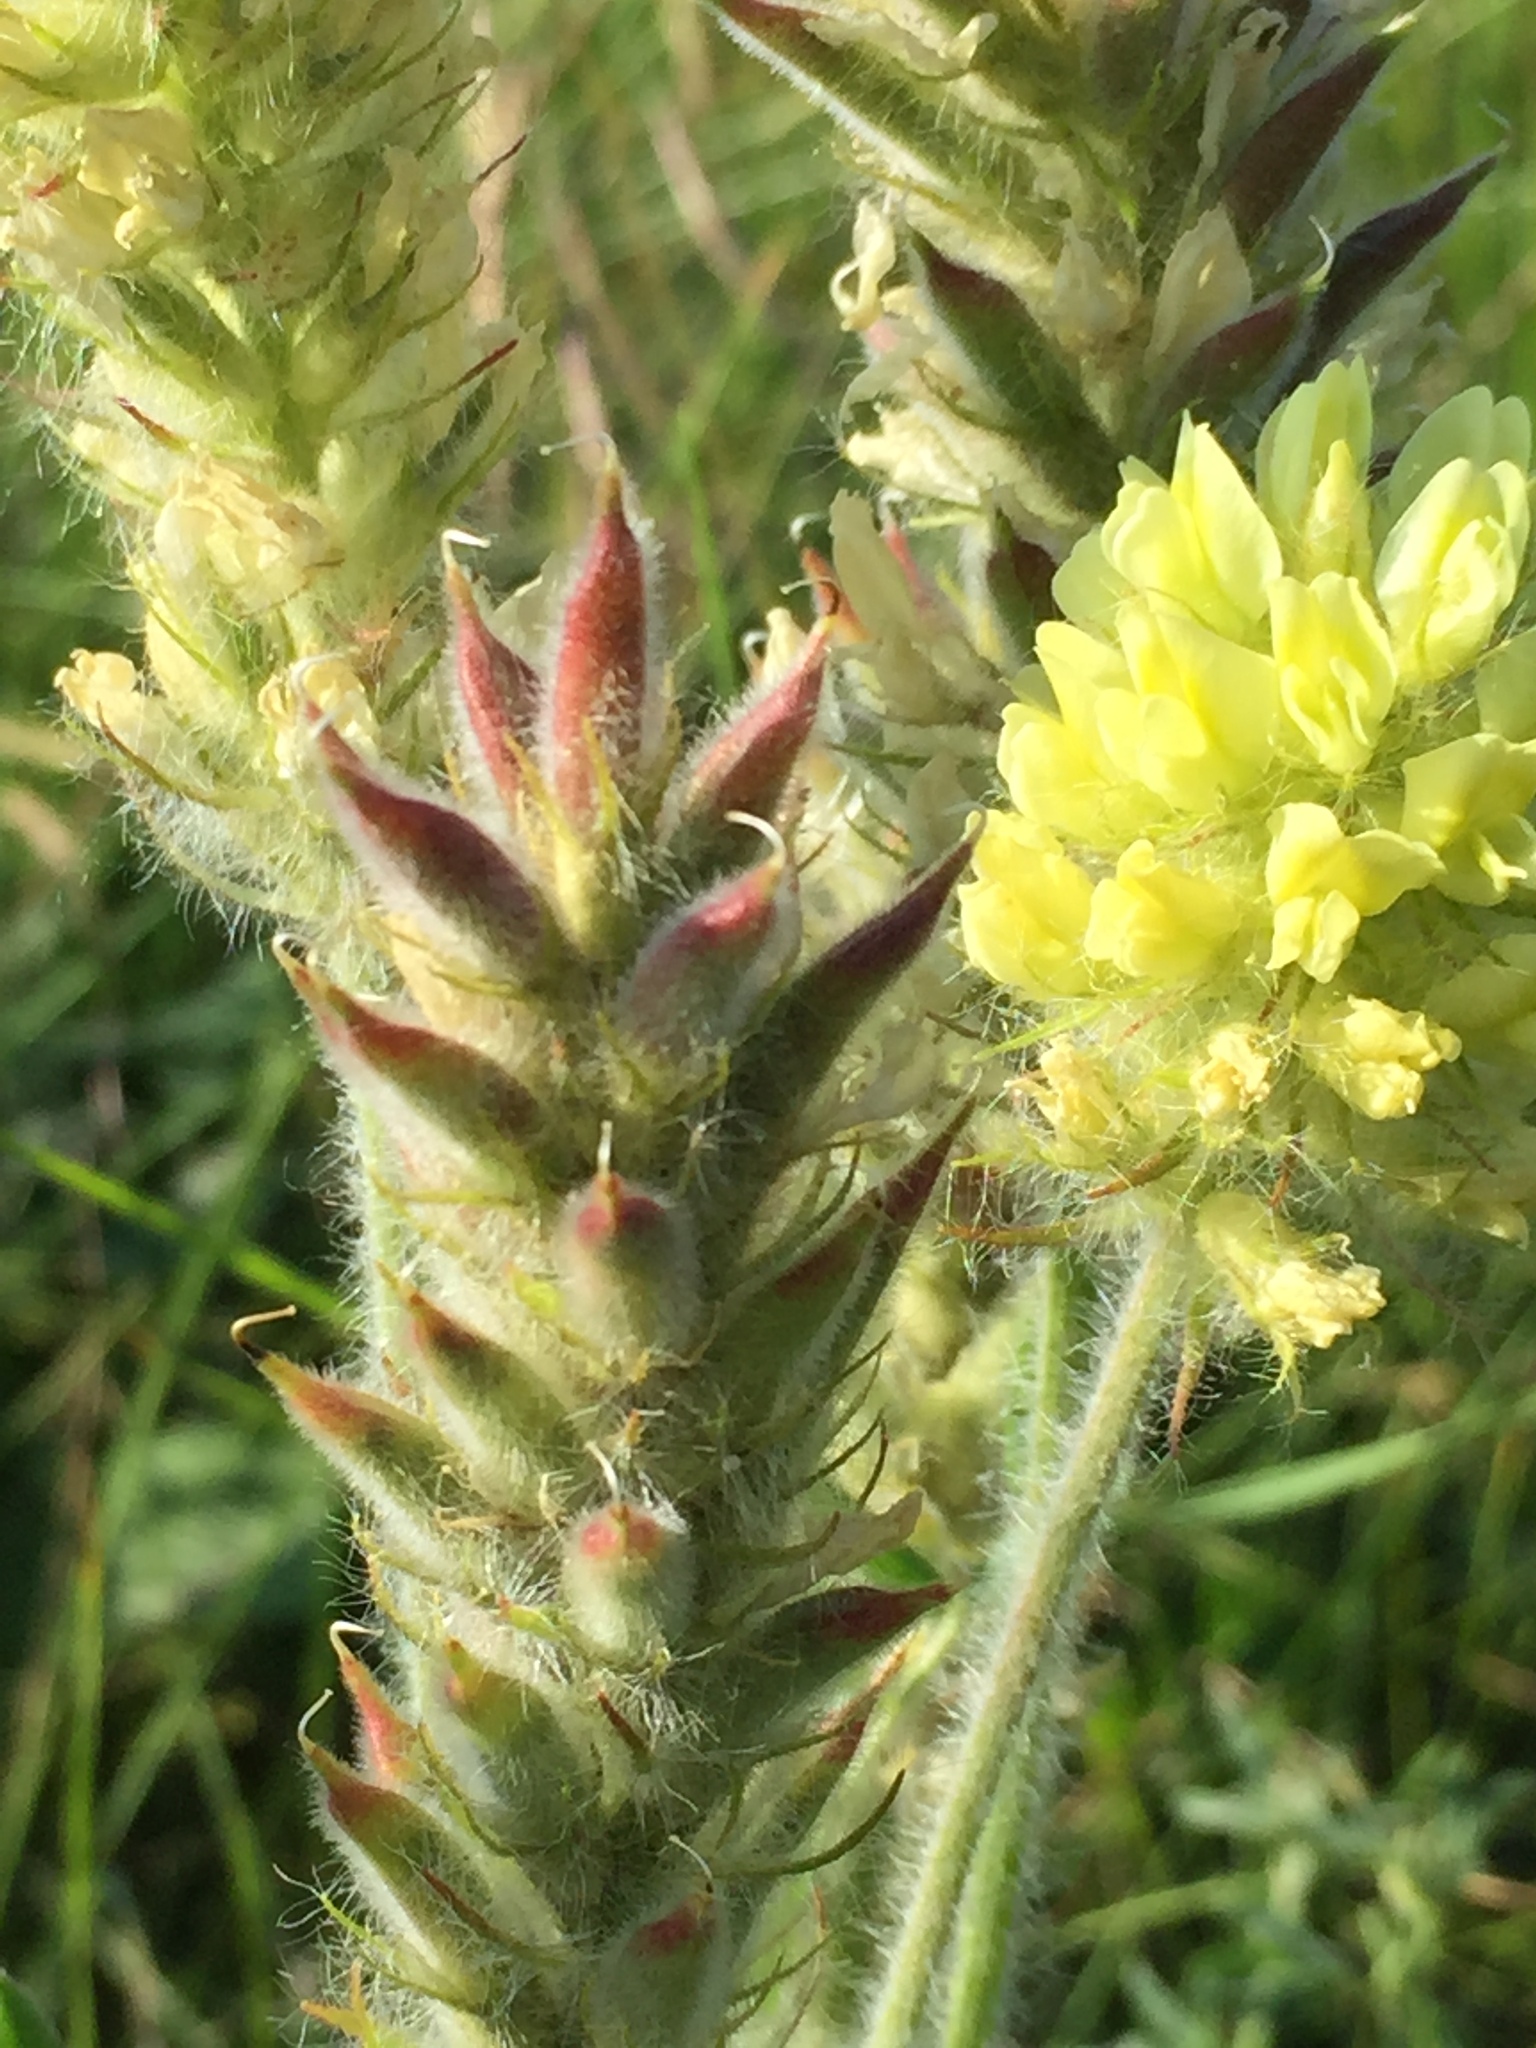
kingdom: Plantae
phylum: Tracheophyta
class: Magnoliopsida
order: Fabales
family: Fabaceae
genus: Oxytropis
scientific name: Oxytropis pilosa
